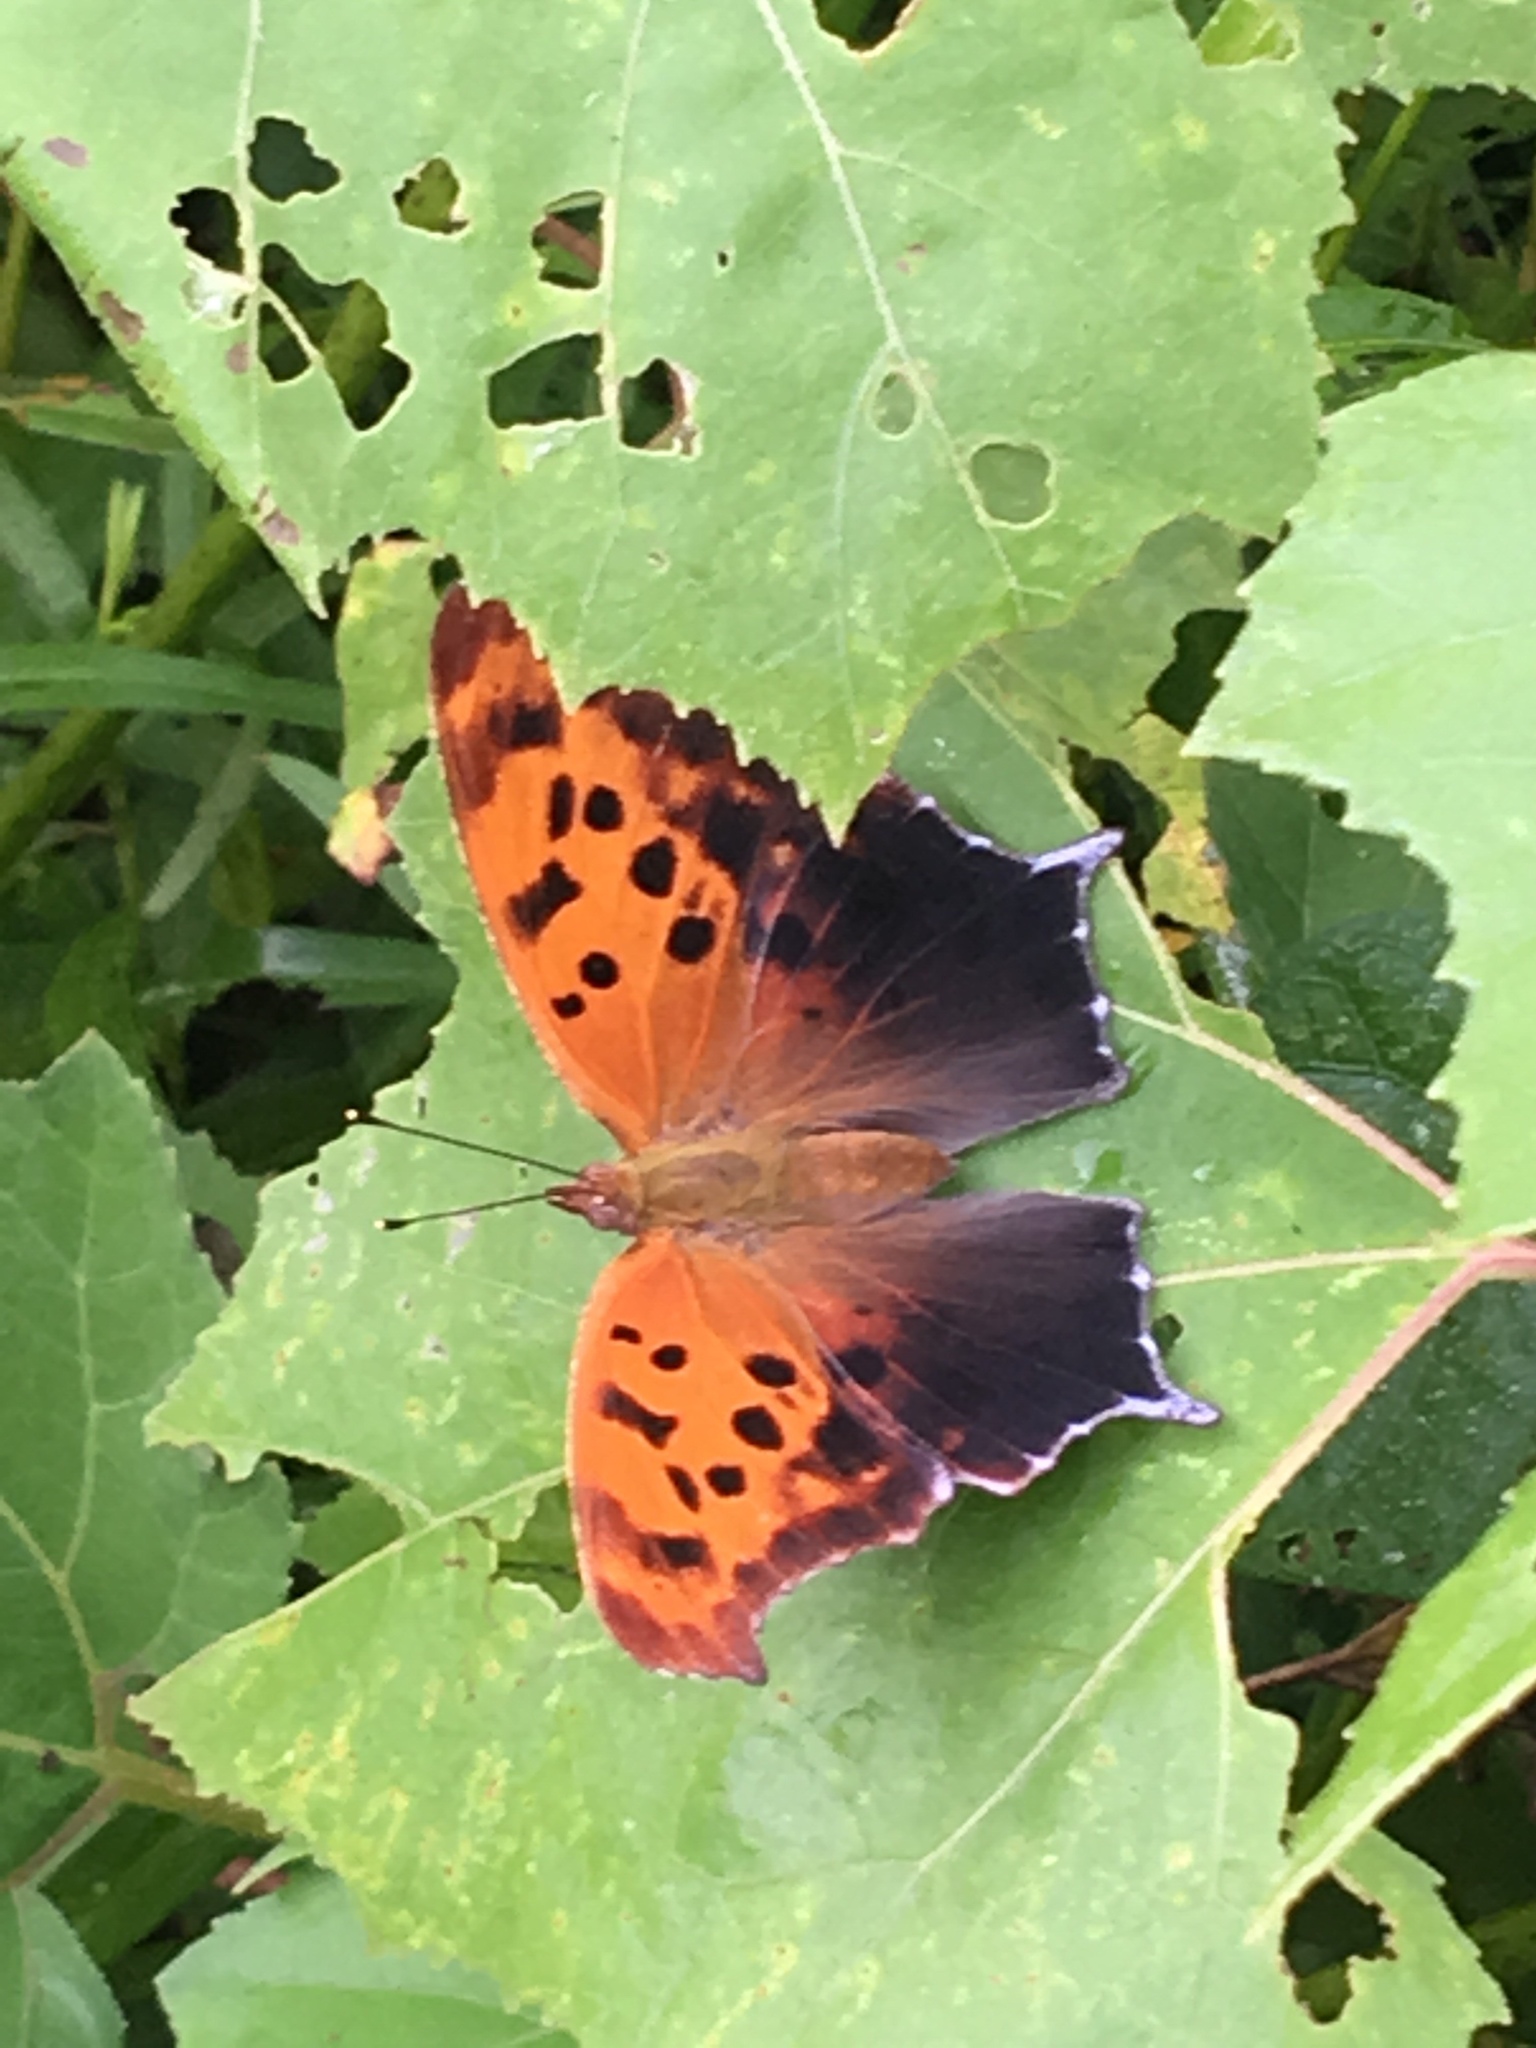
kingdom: Animalia
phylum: Arthropoda
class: Insecta
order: Lepidoptera
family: Nymphalidae
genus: Polygonia
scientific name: Polygonia interrogationis
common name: Question mark
